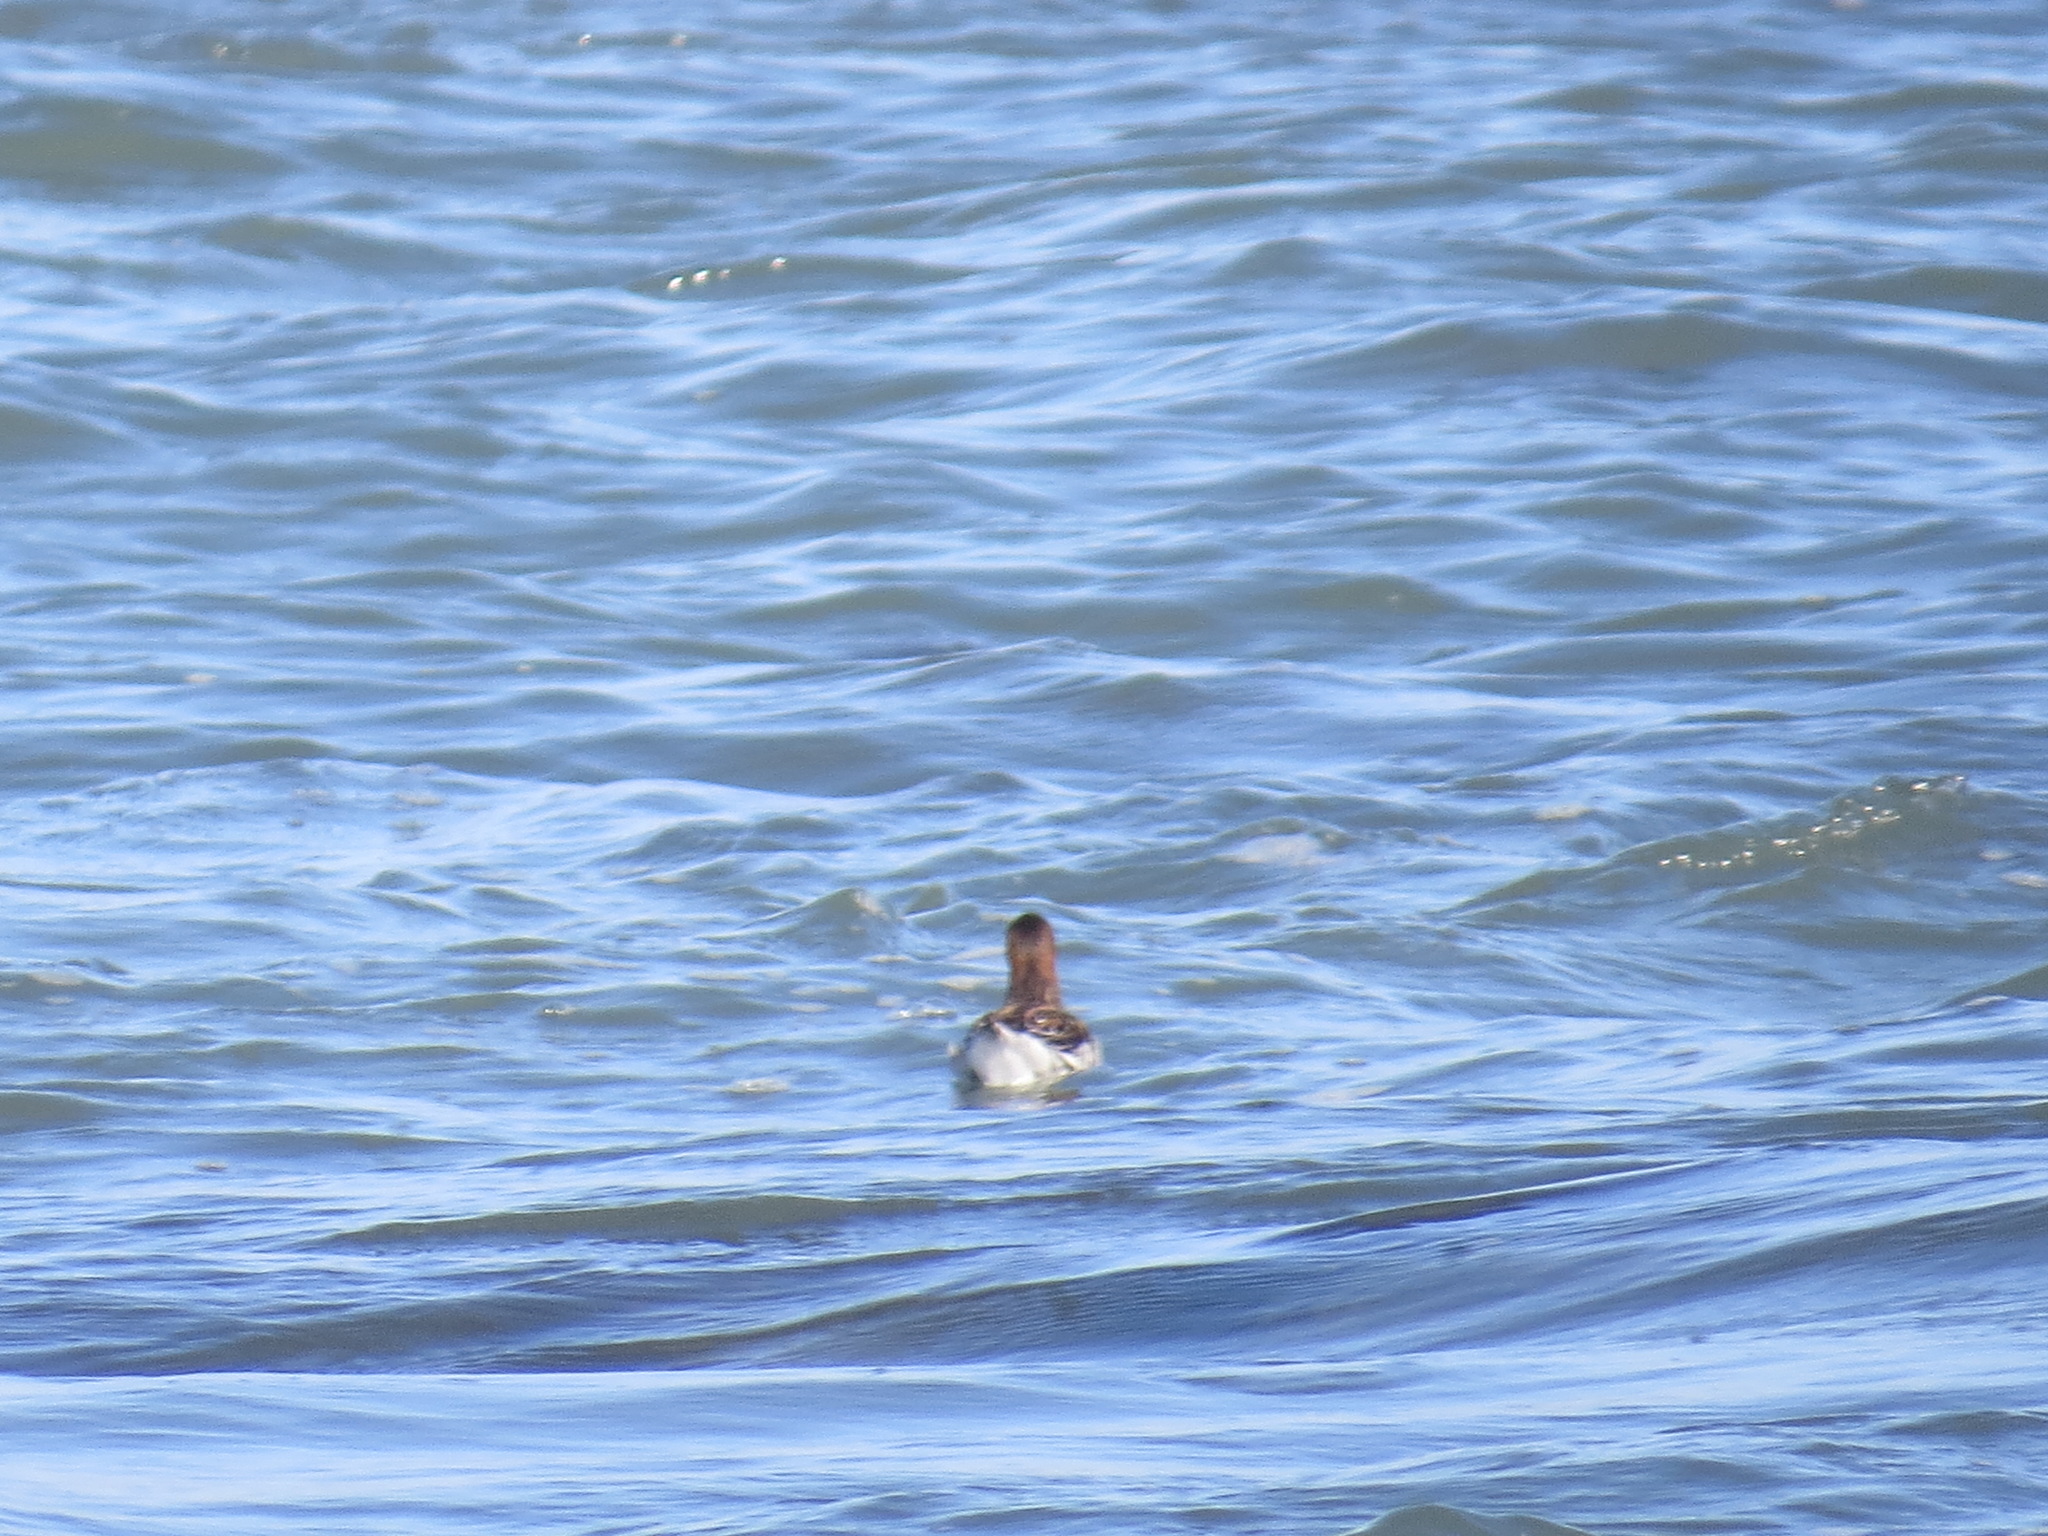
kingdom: Animalia
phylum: Chordata
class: Aves
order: Charadriiformes
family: Scolopacidae
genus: Phalaropus
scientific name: Phalaropus lobatus
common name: Red-necked phalarope
